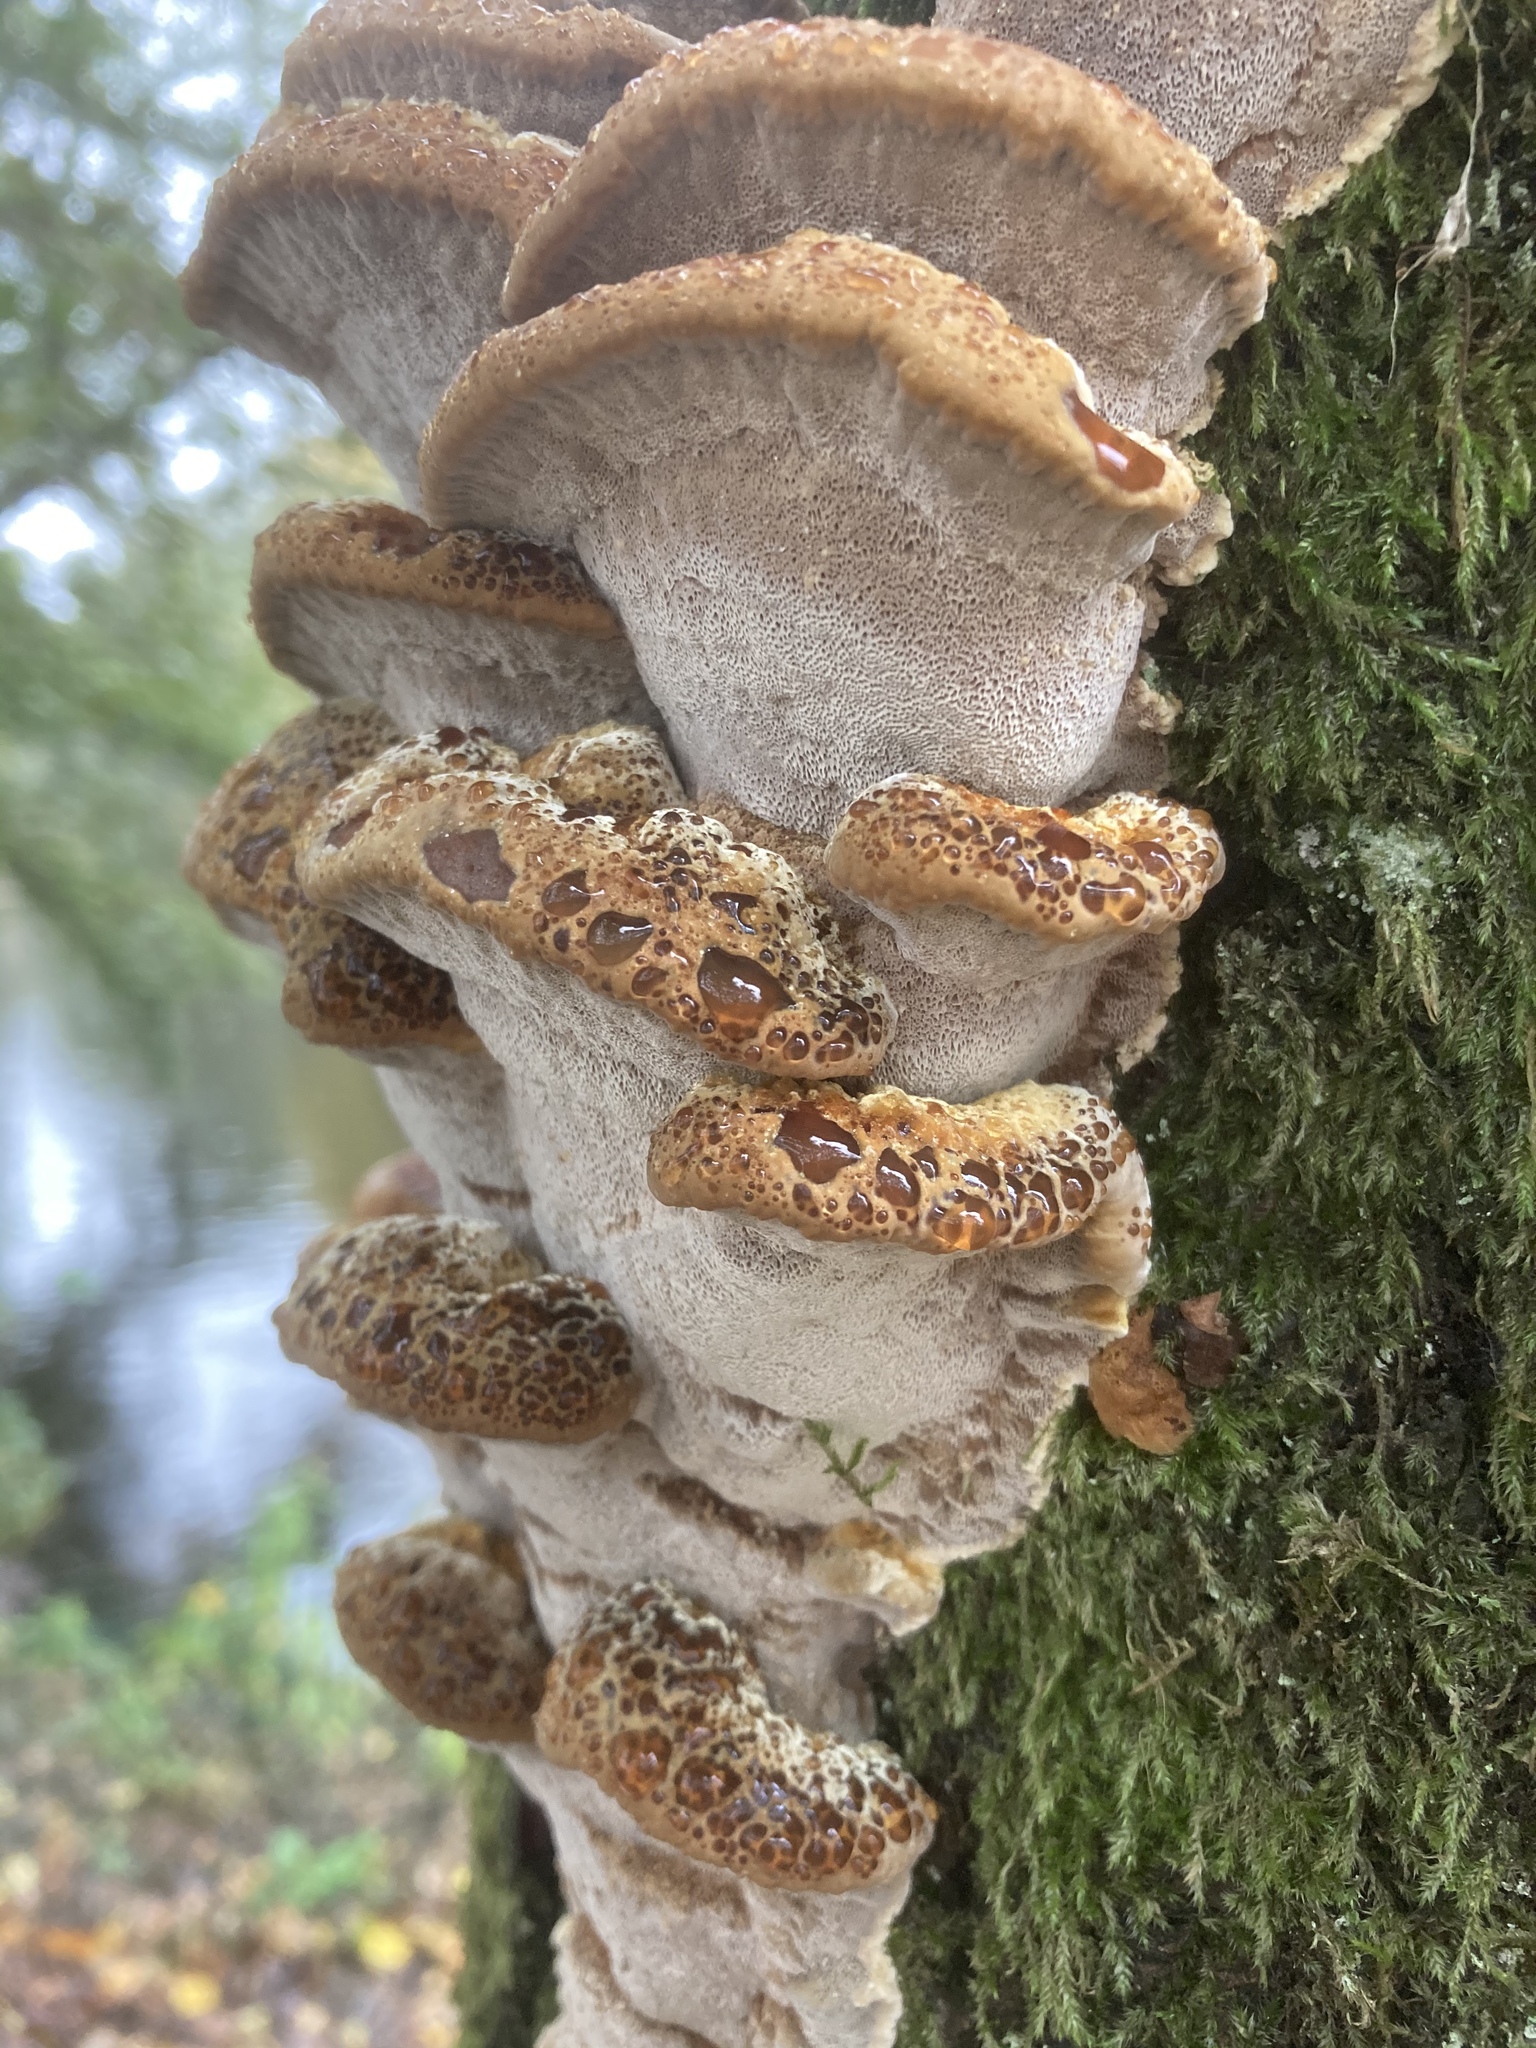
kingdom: Fungi
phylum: Basidiomycota
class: Agaricomycetes
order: Hymenochaetales
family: Hymenochaetaceae
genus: Pseudoinonotus
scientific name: Pseudoinonotus dryadeus
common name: Oak bracket
